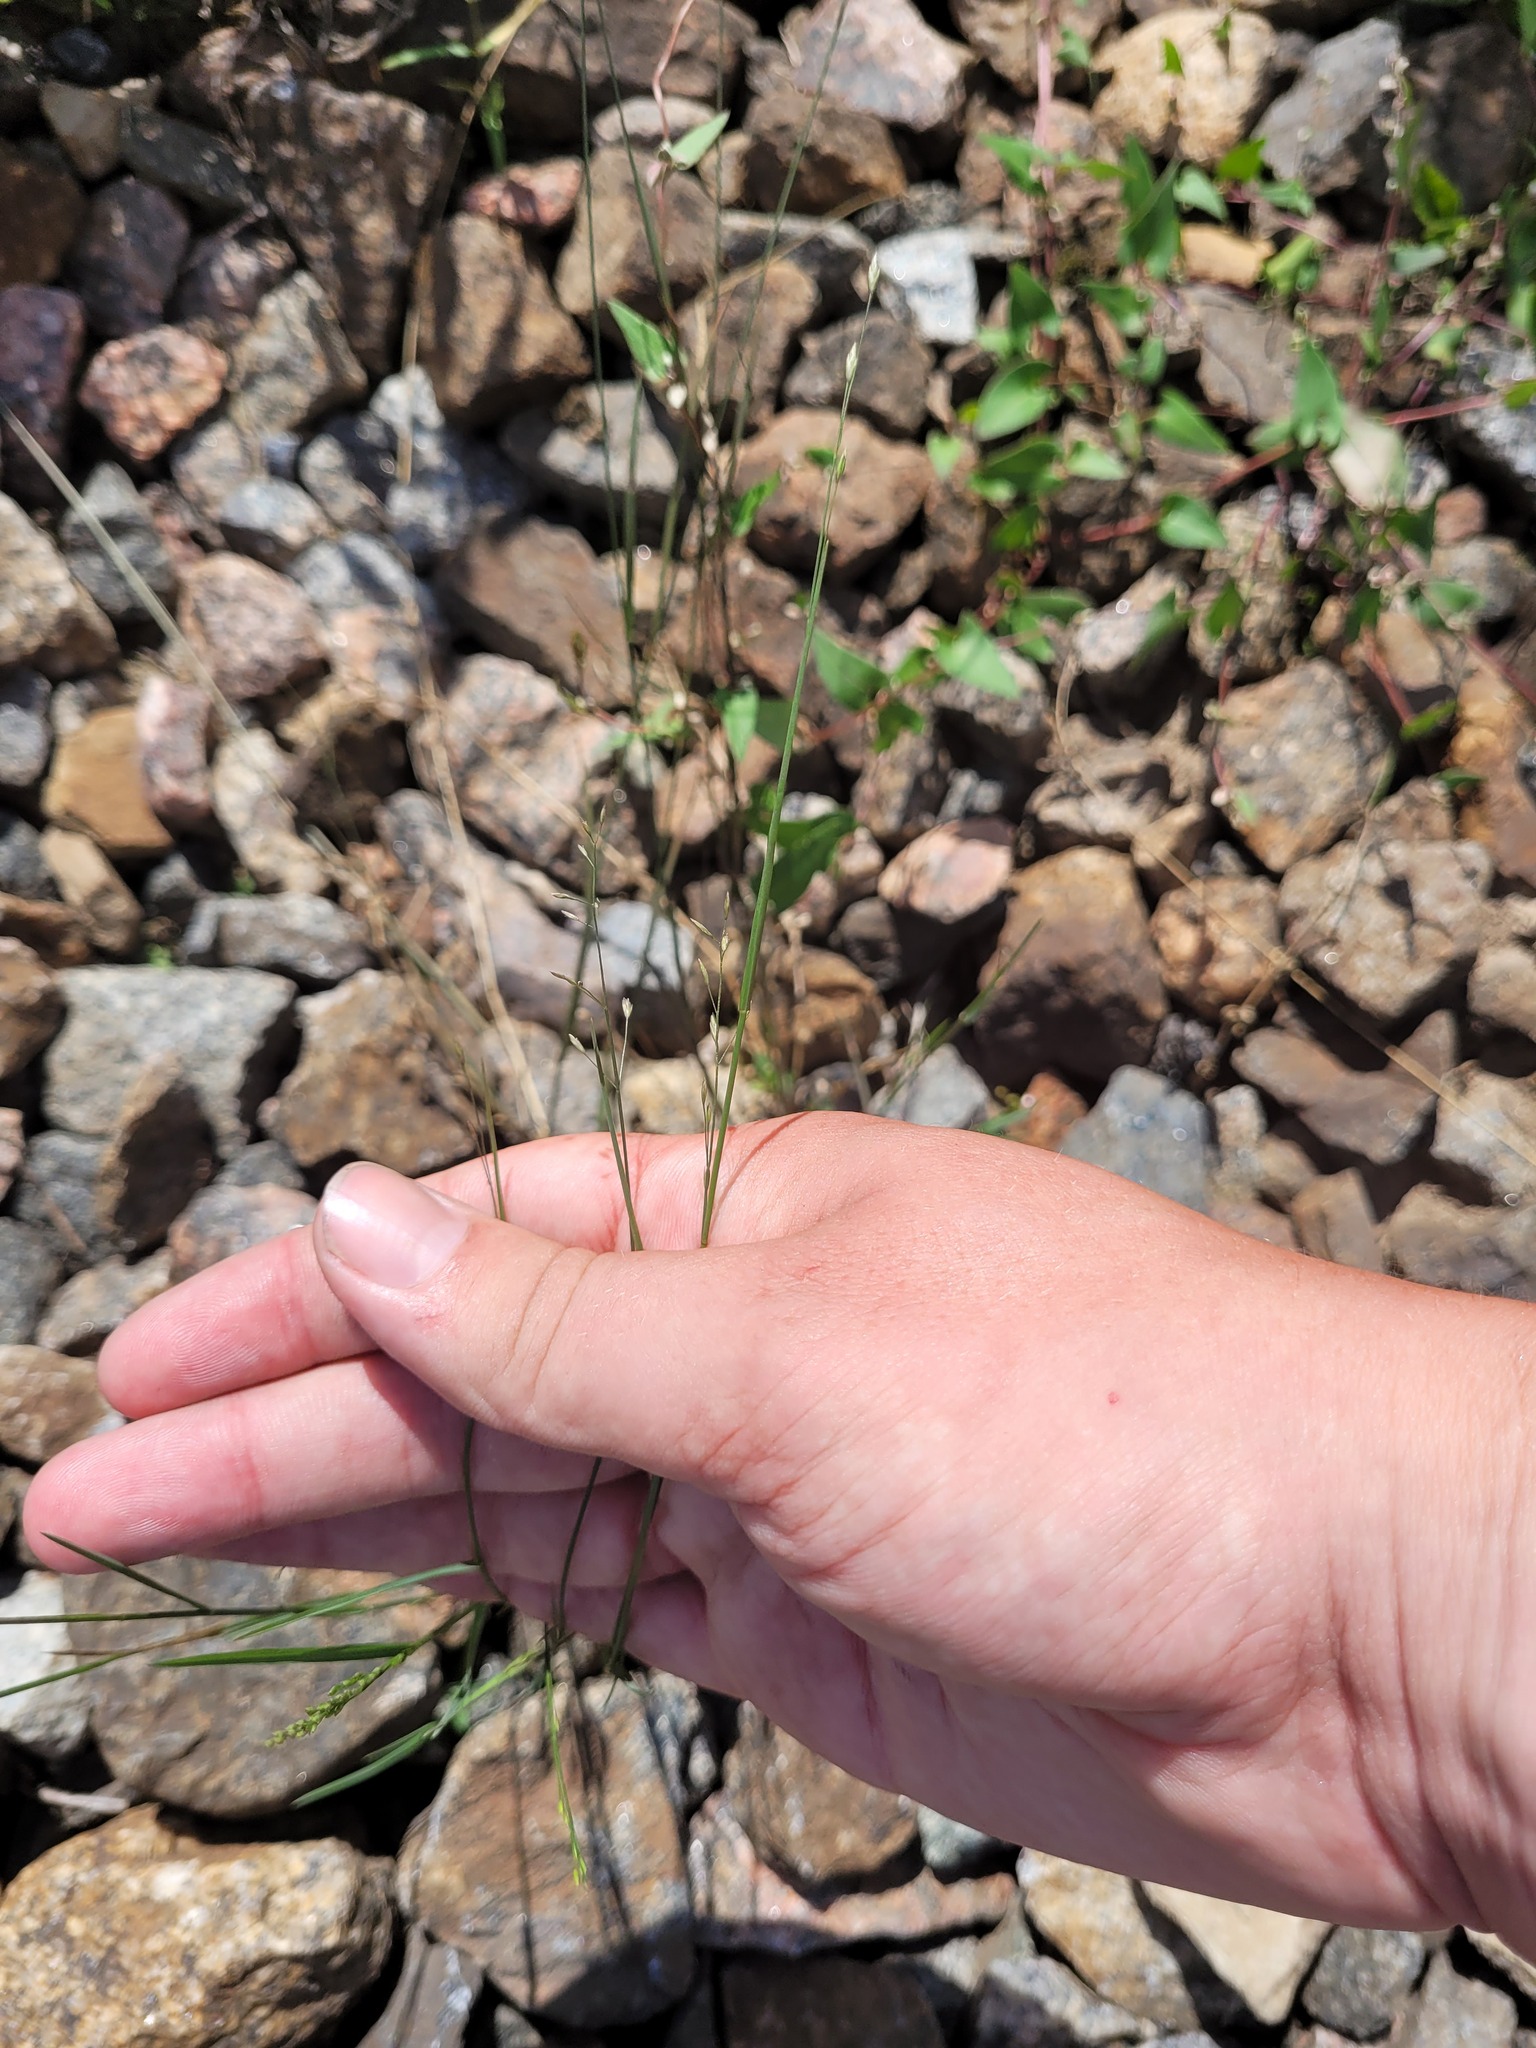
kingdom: Plantae
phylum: Tracheophyta
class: Liliopsida
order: Poales
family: Poaceae
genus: Poa
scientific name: Poa compressa
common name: Canada bluegrass
